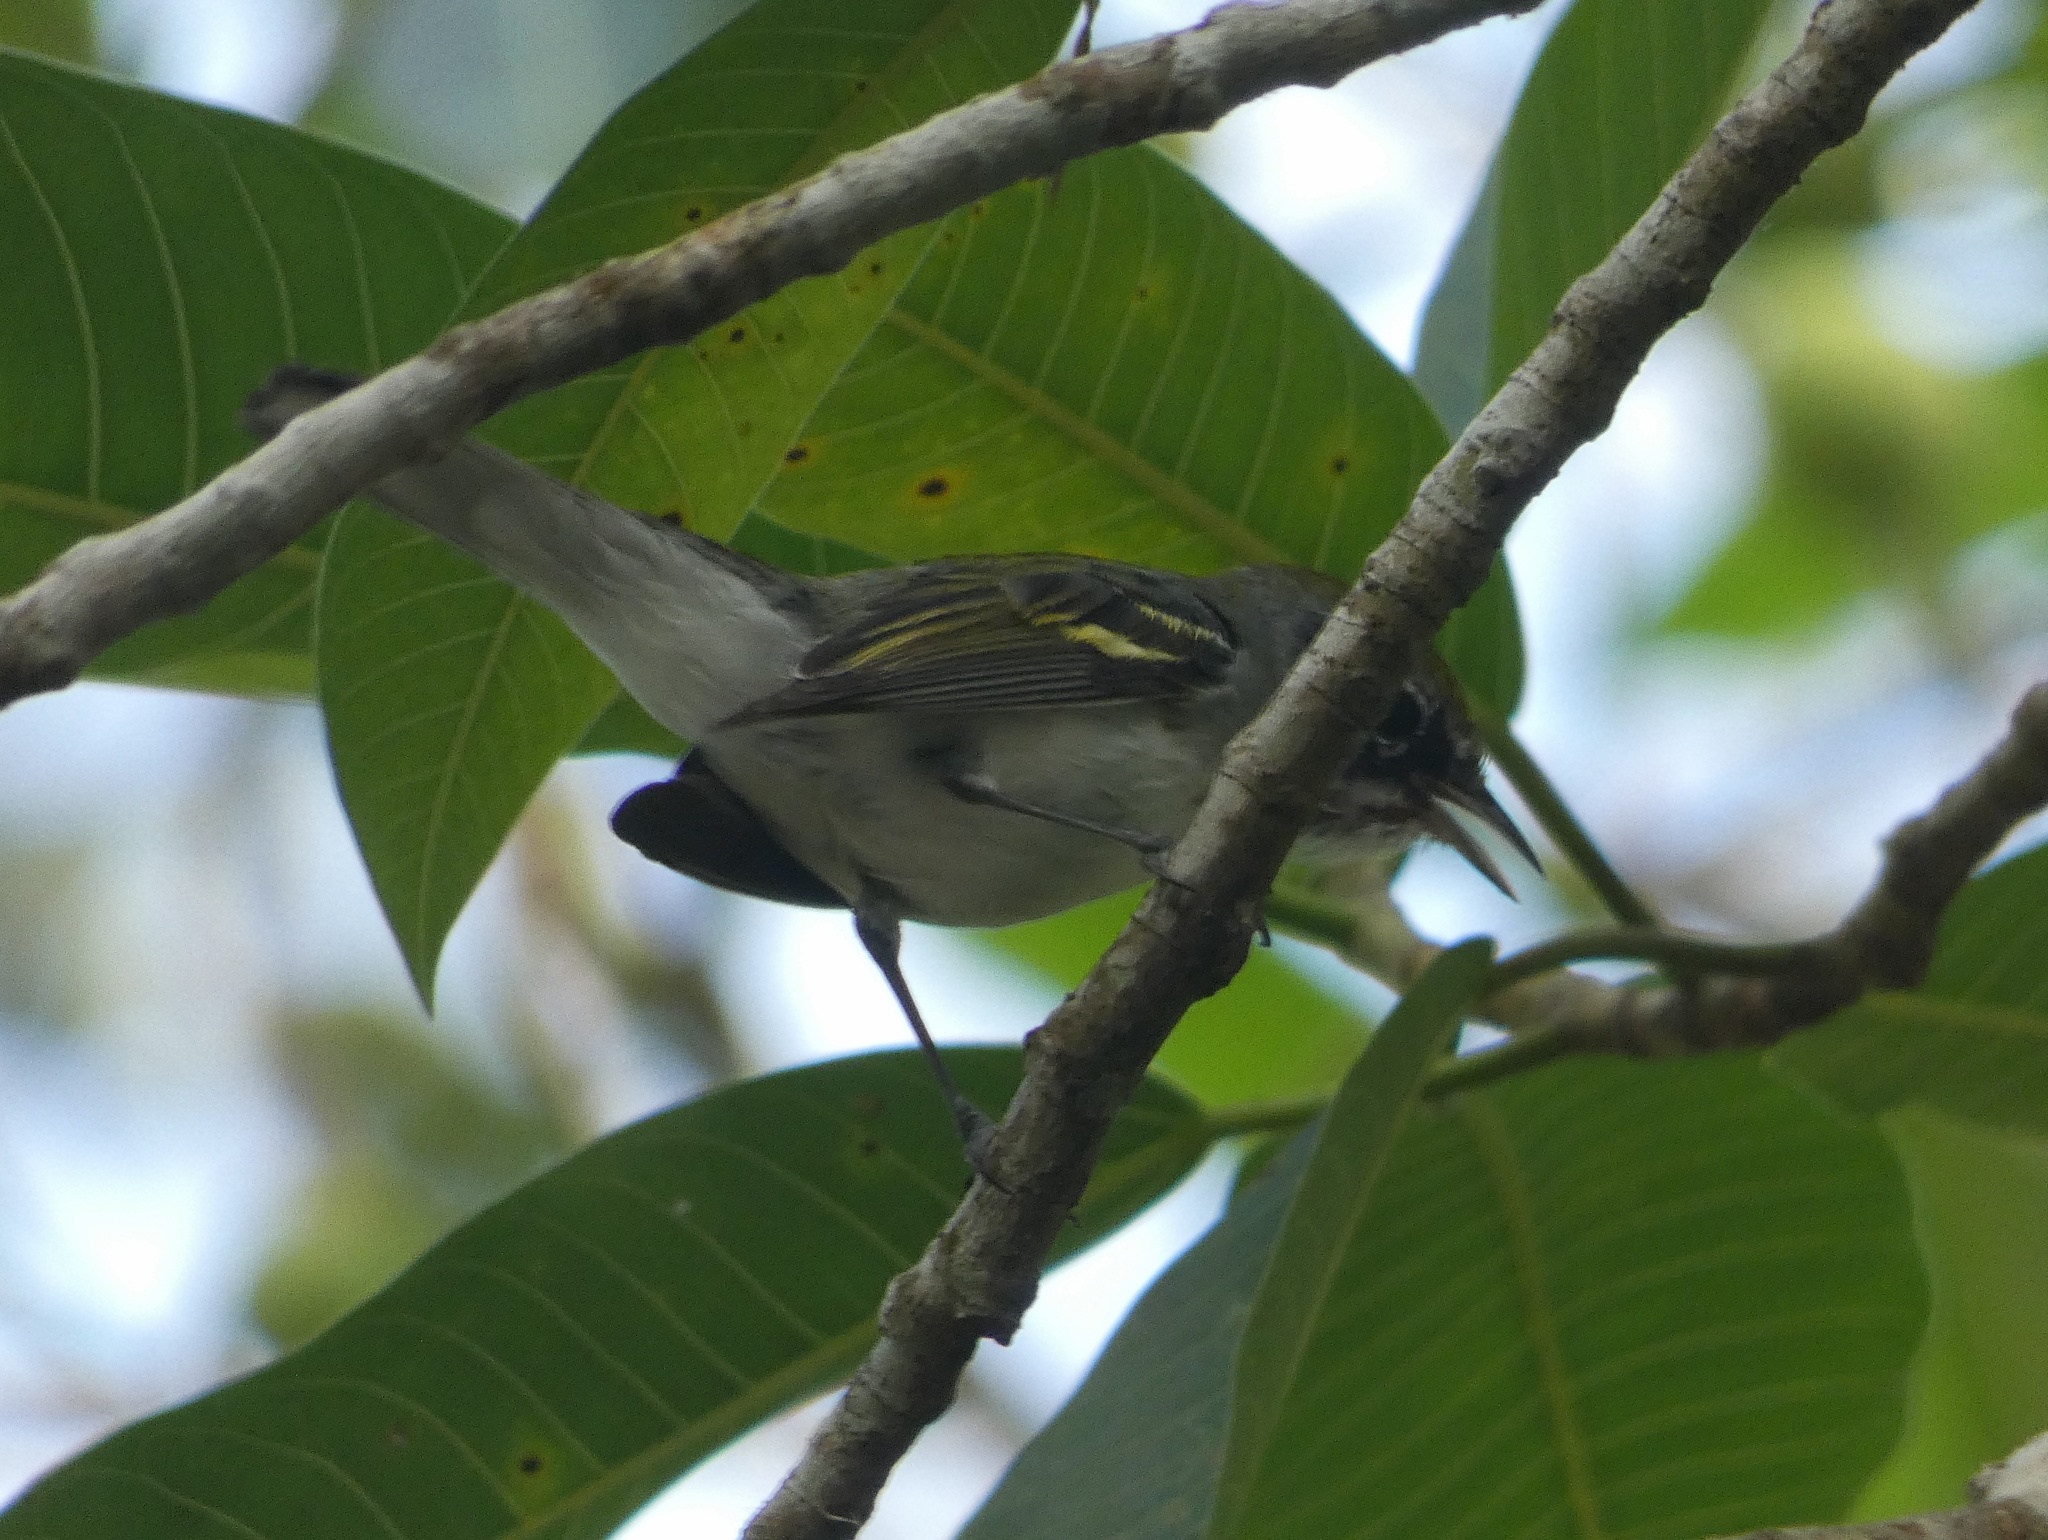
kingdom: Animalia
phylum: Chordata
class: Aves
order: Passeriformes
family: Parulidae
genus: Setophaga
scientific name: Setophaga pensylvanica
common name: Chestnut-sided warbler
